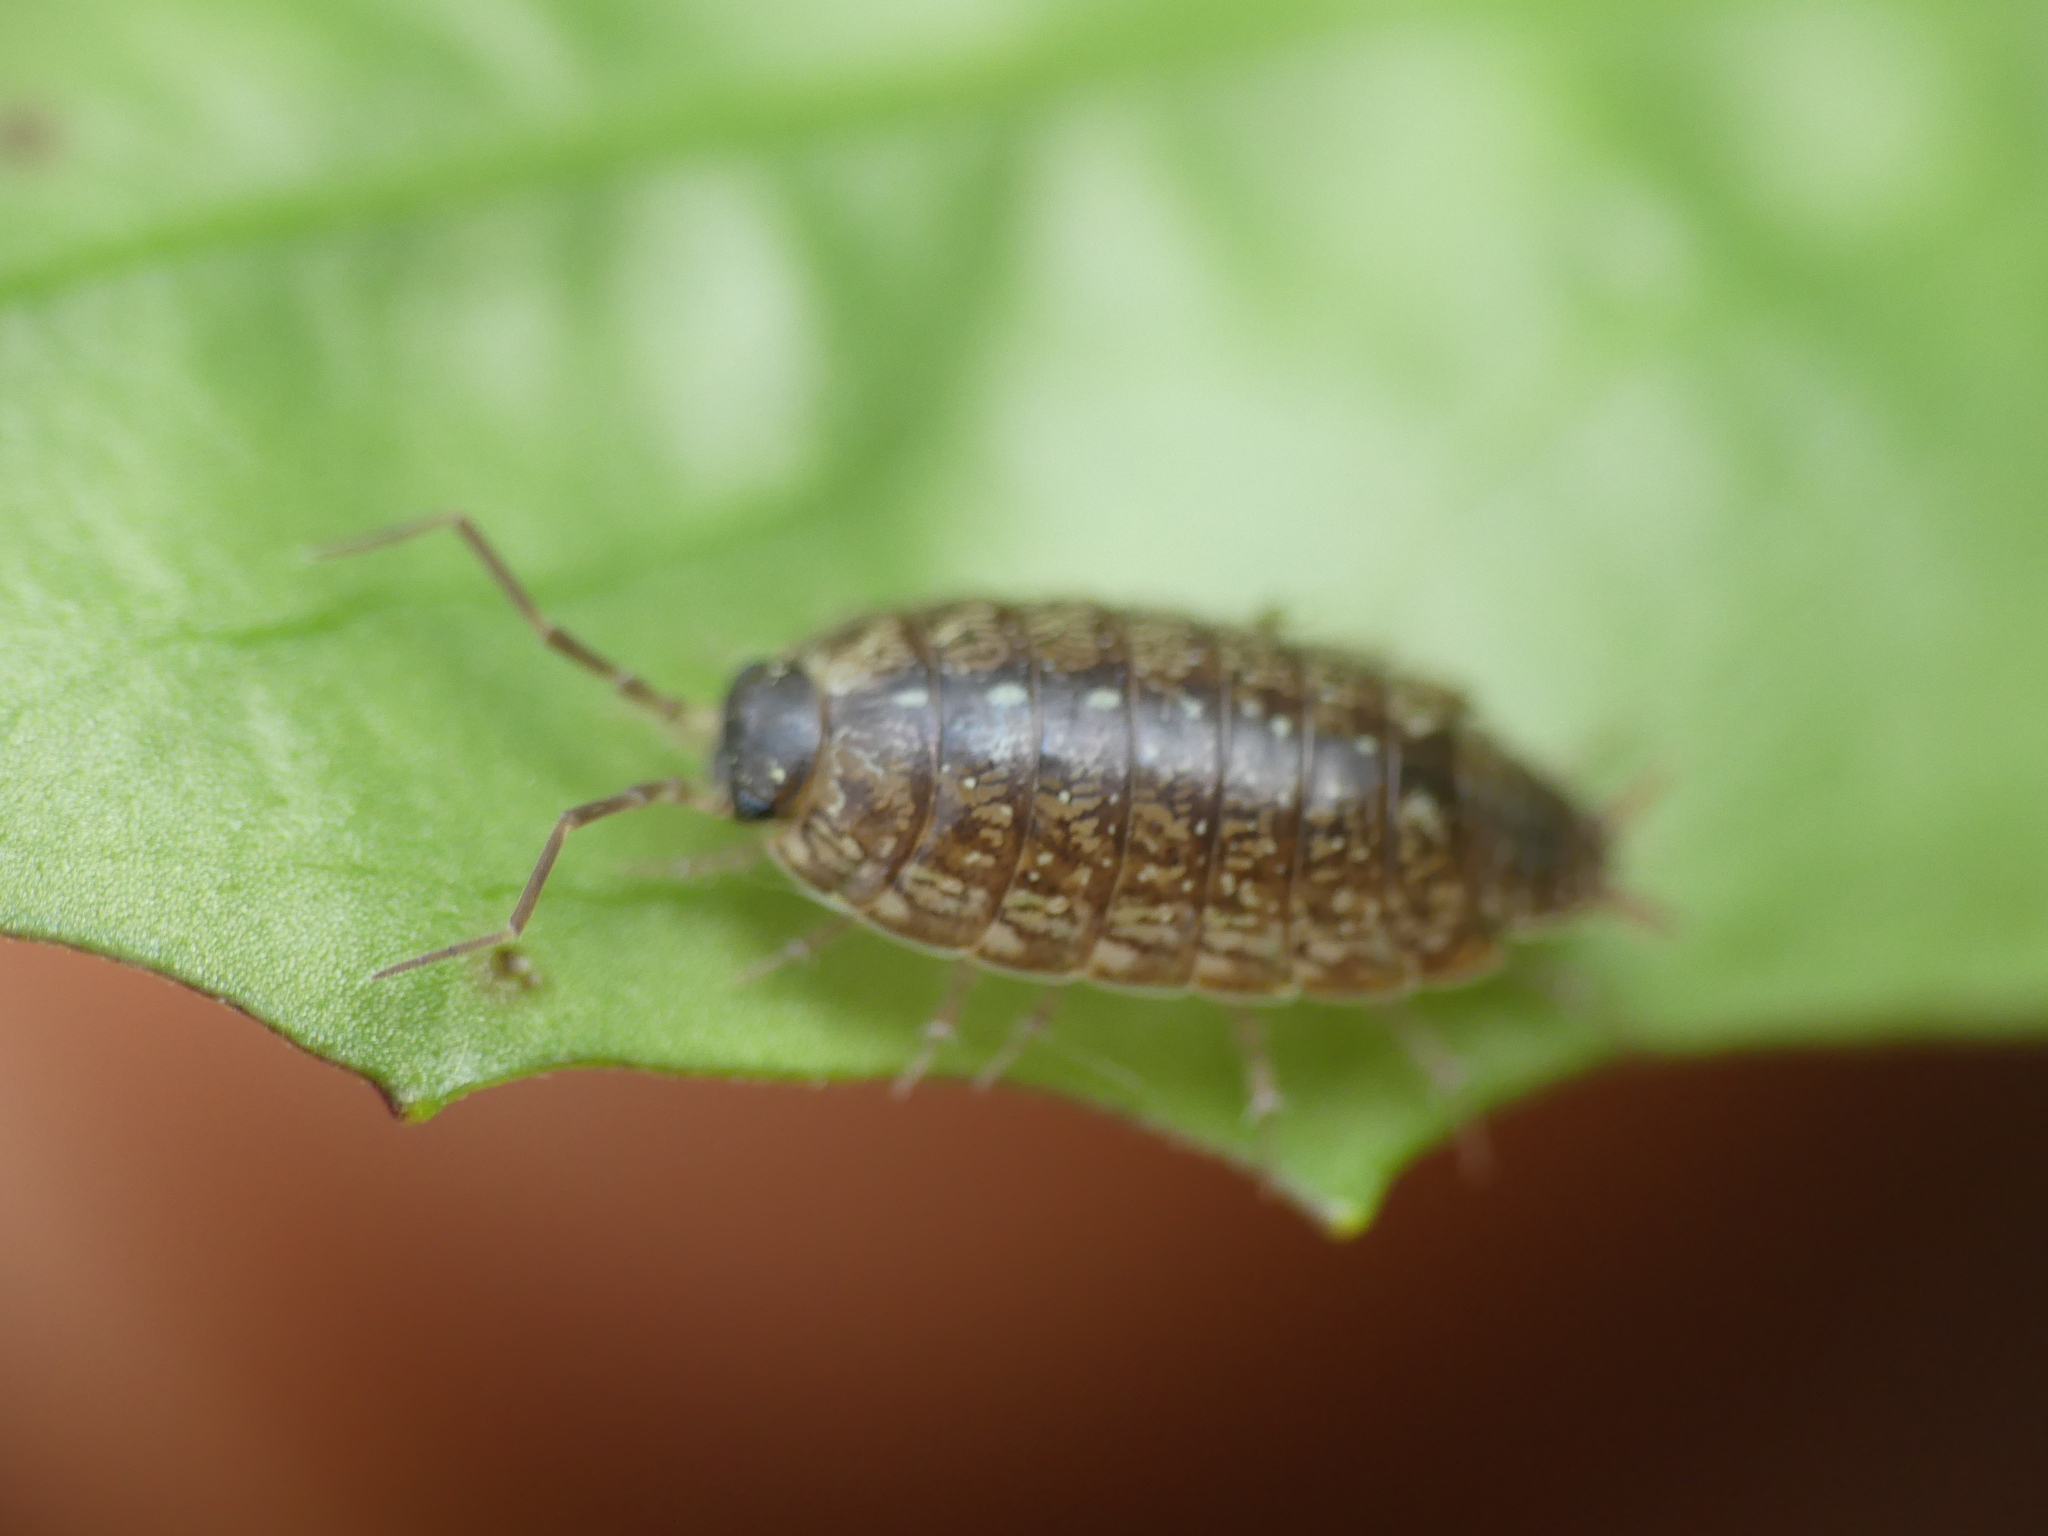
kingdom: Animalia
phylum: Arthropoda
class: Malacostraca
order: Isopoda
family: Philosciidae
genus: Philoscia
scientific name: Philoscia affinis
